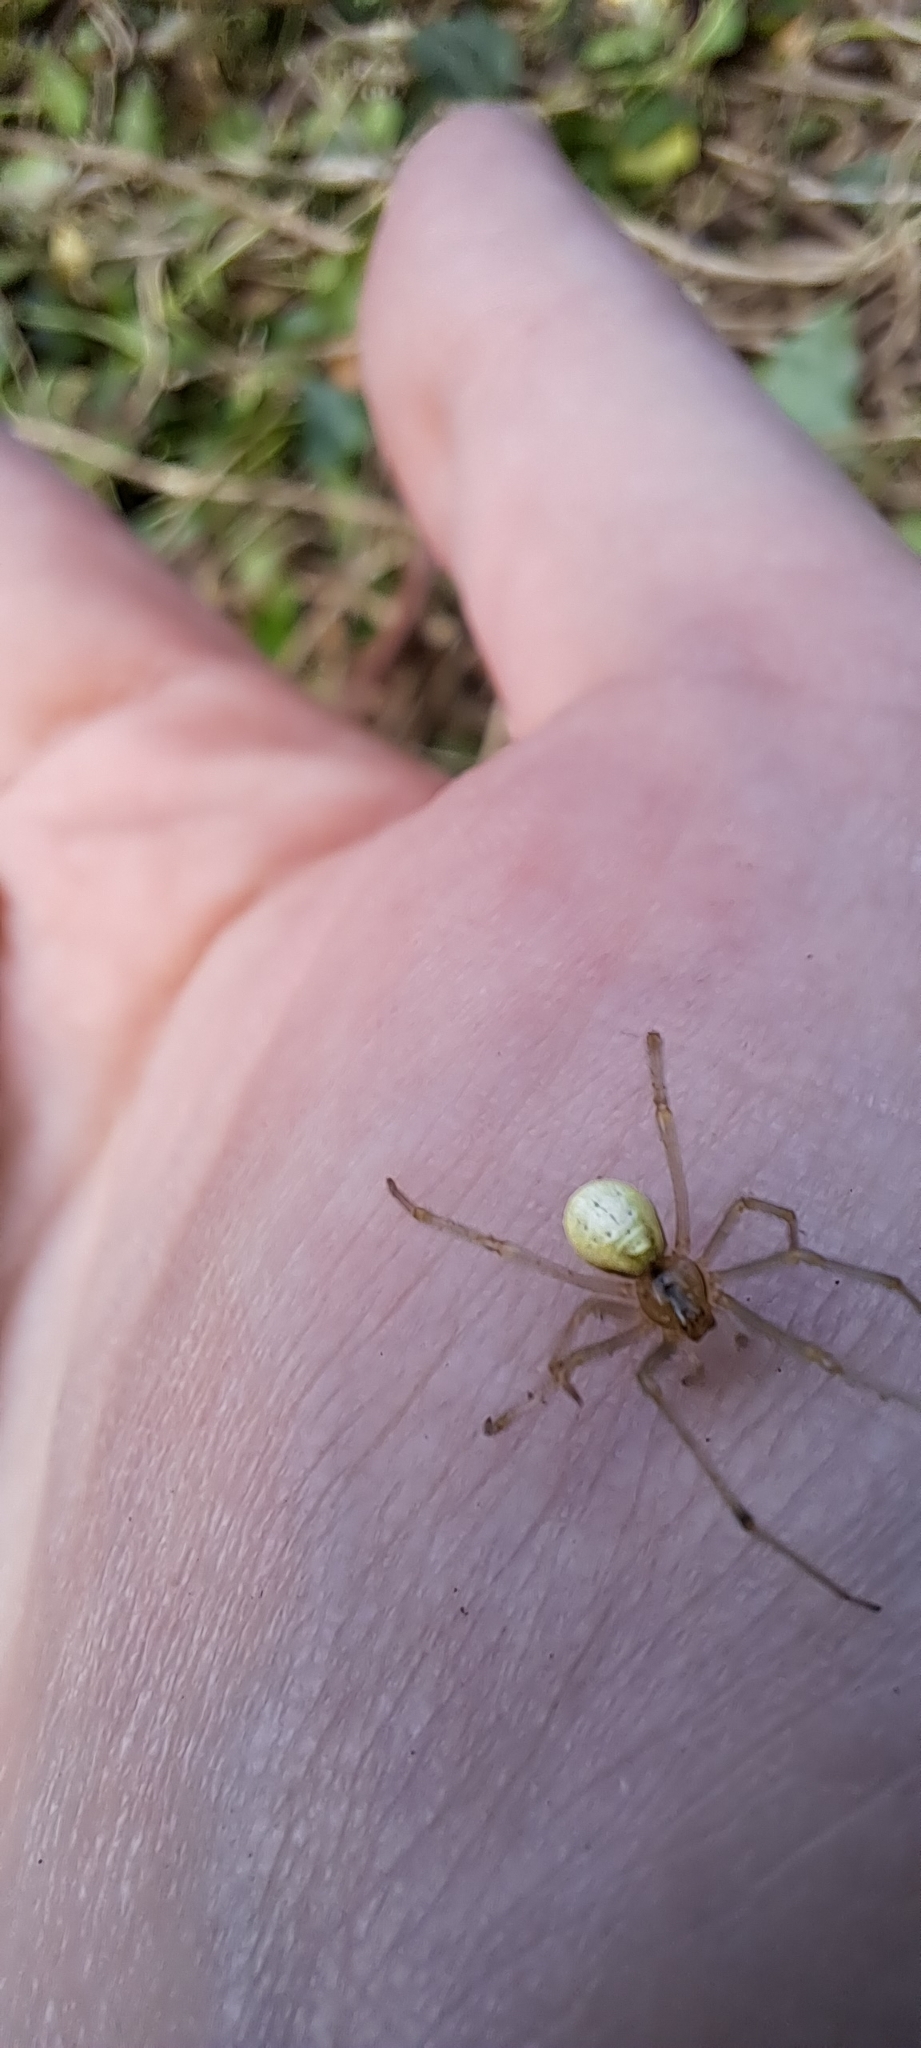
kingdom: Animalia
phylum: Arthropoda
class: Arachnida
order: Araneae
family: Theridiidae
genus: Enoplognatha
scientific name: Enoplognatha ovata
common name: Common candy-striped spider
